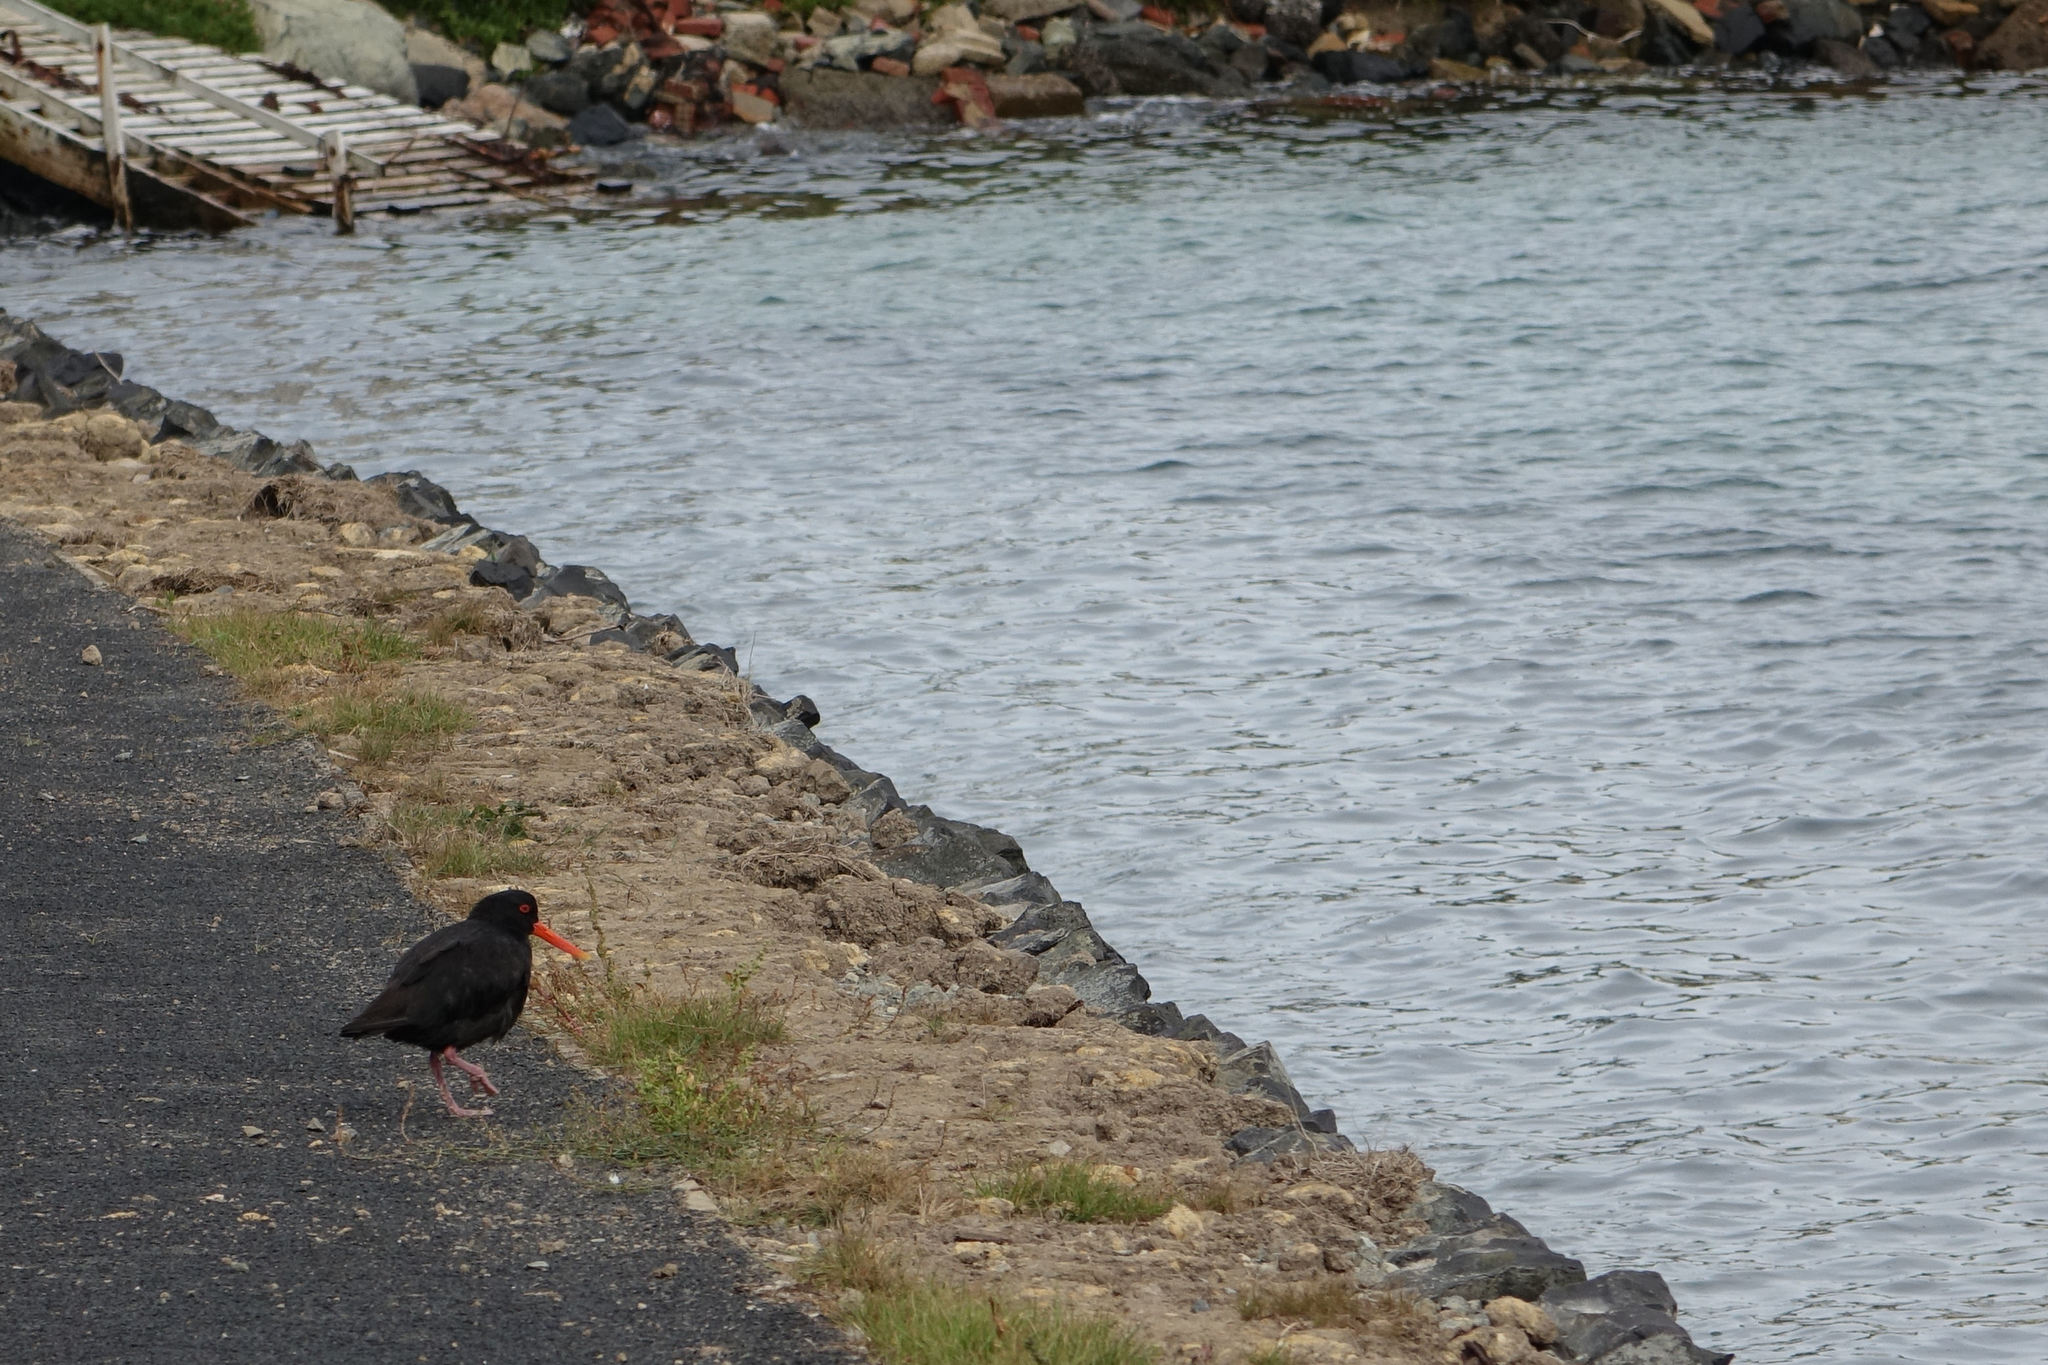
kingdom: Animalia
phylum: Chordata
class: Aves
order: Charadriiformes
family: Haematopodidae
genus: Haematopus
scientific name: Haematopus unicolor
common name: Variable oystercatcher
